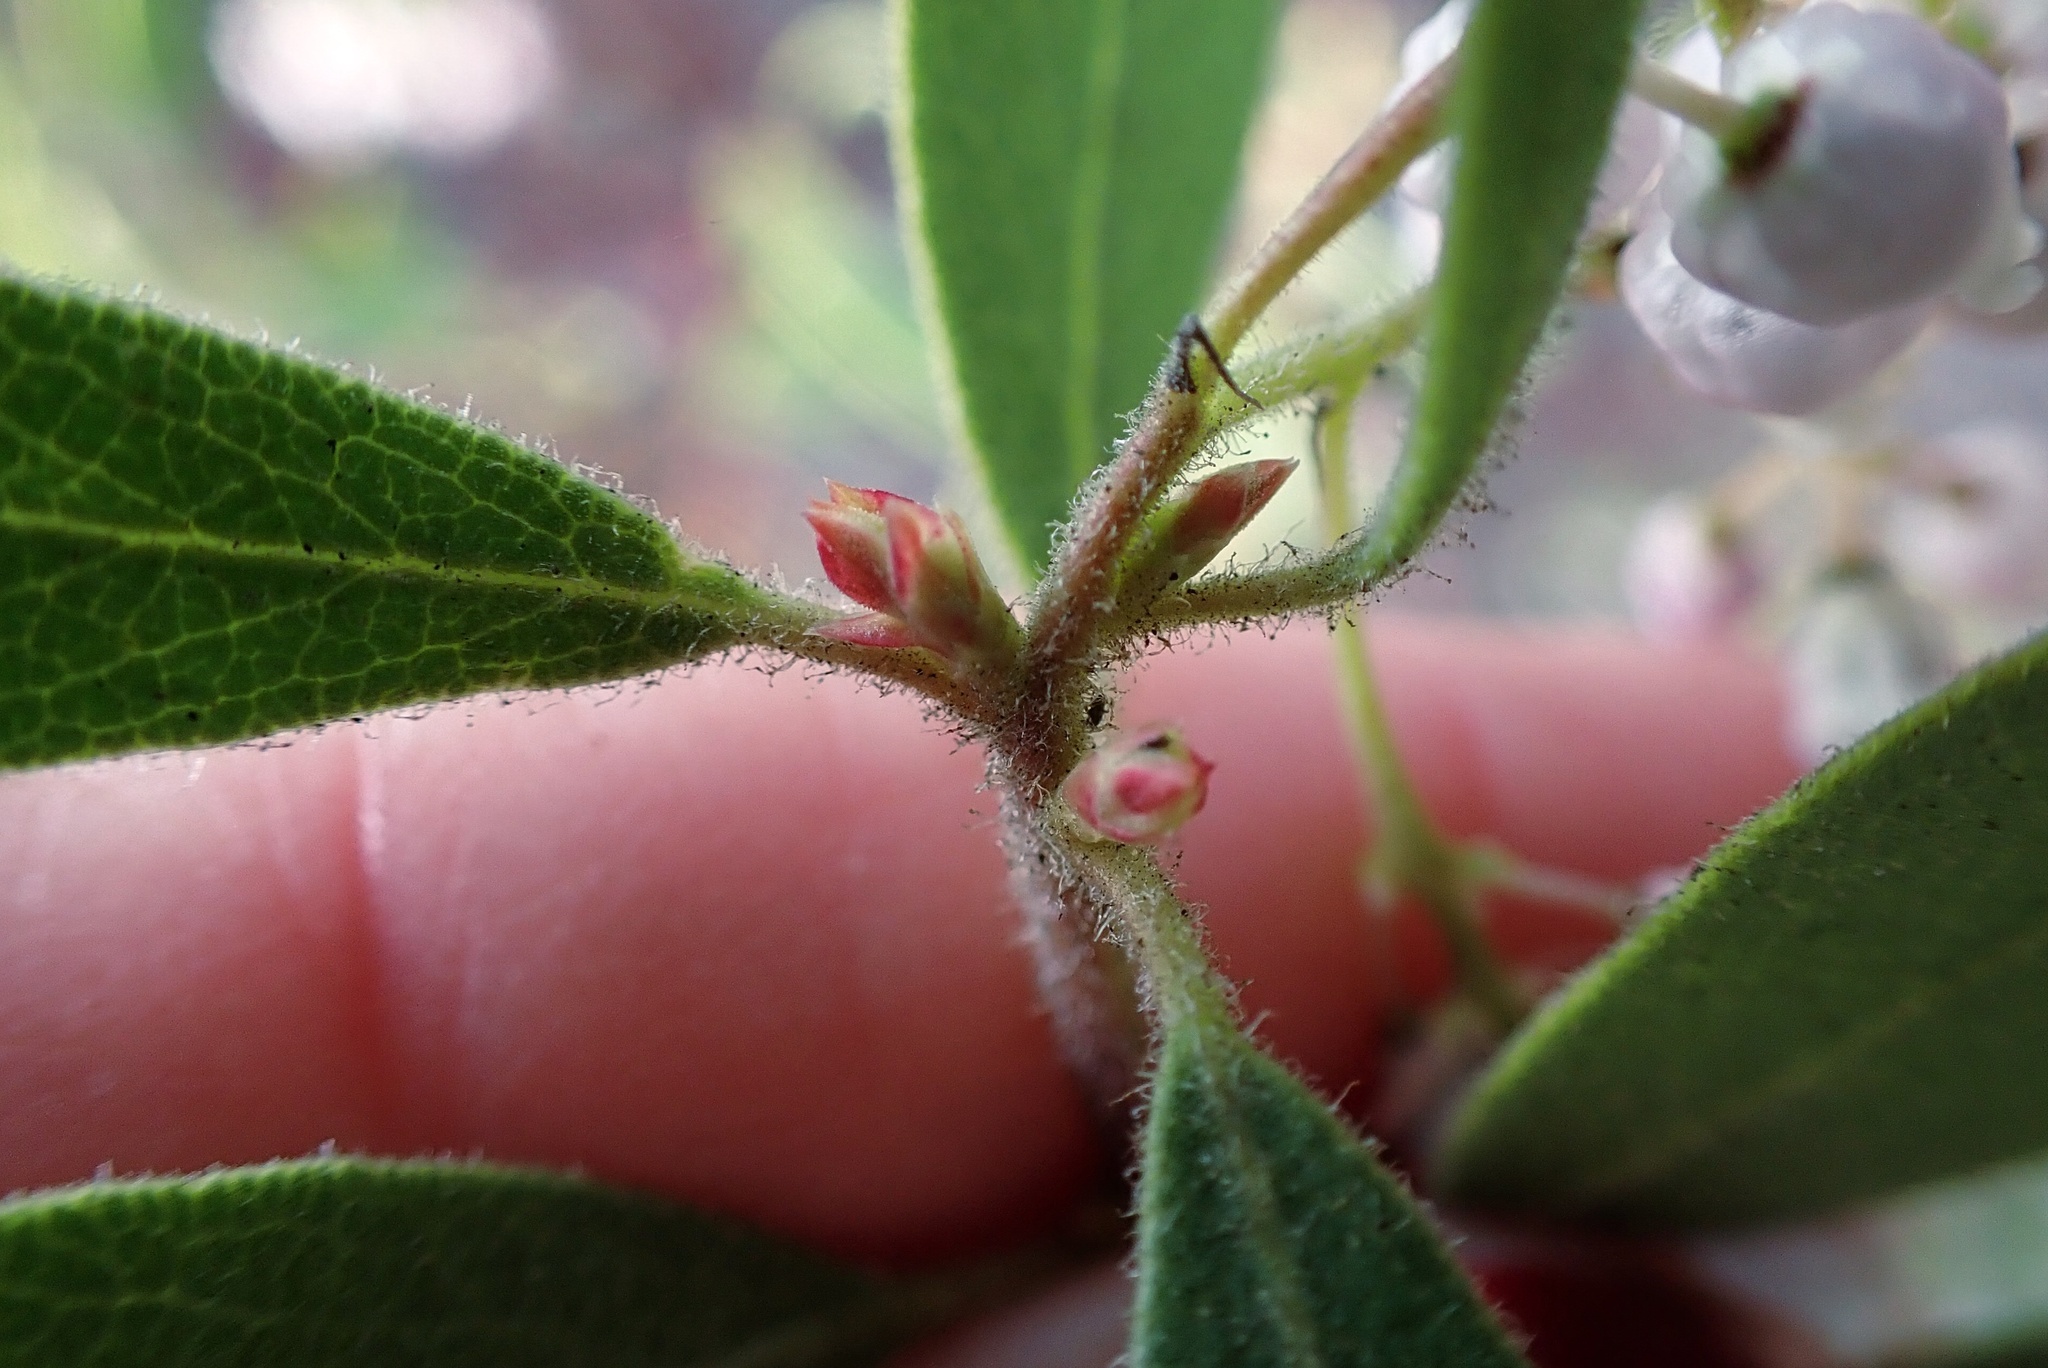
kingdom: Plantae
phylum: Tracheophyta
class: Magnoliopsida
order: Ericales
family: Ericaceae
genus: Arctostaphylos
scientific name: Arctostaphylos hispidula
